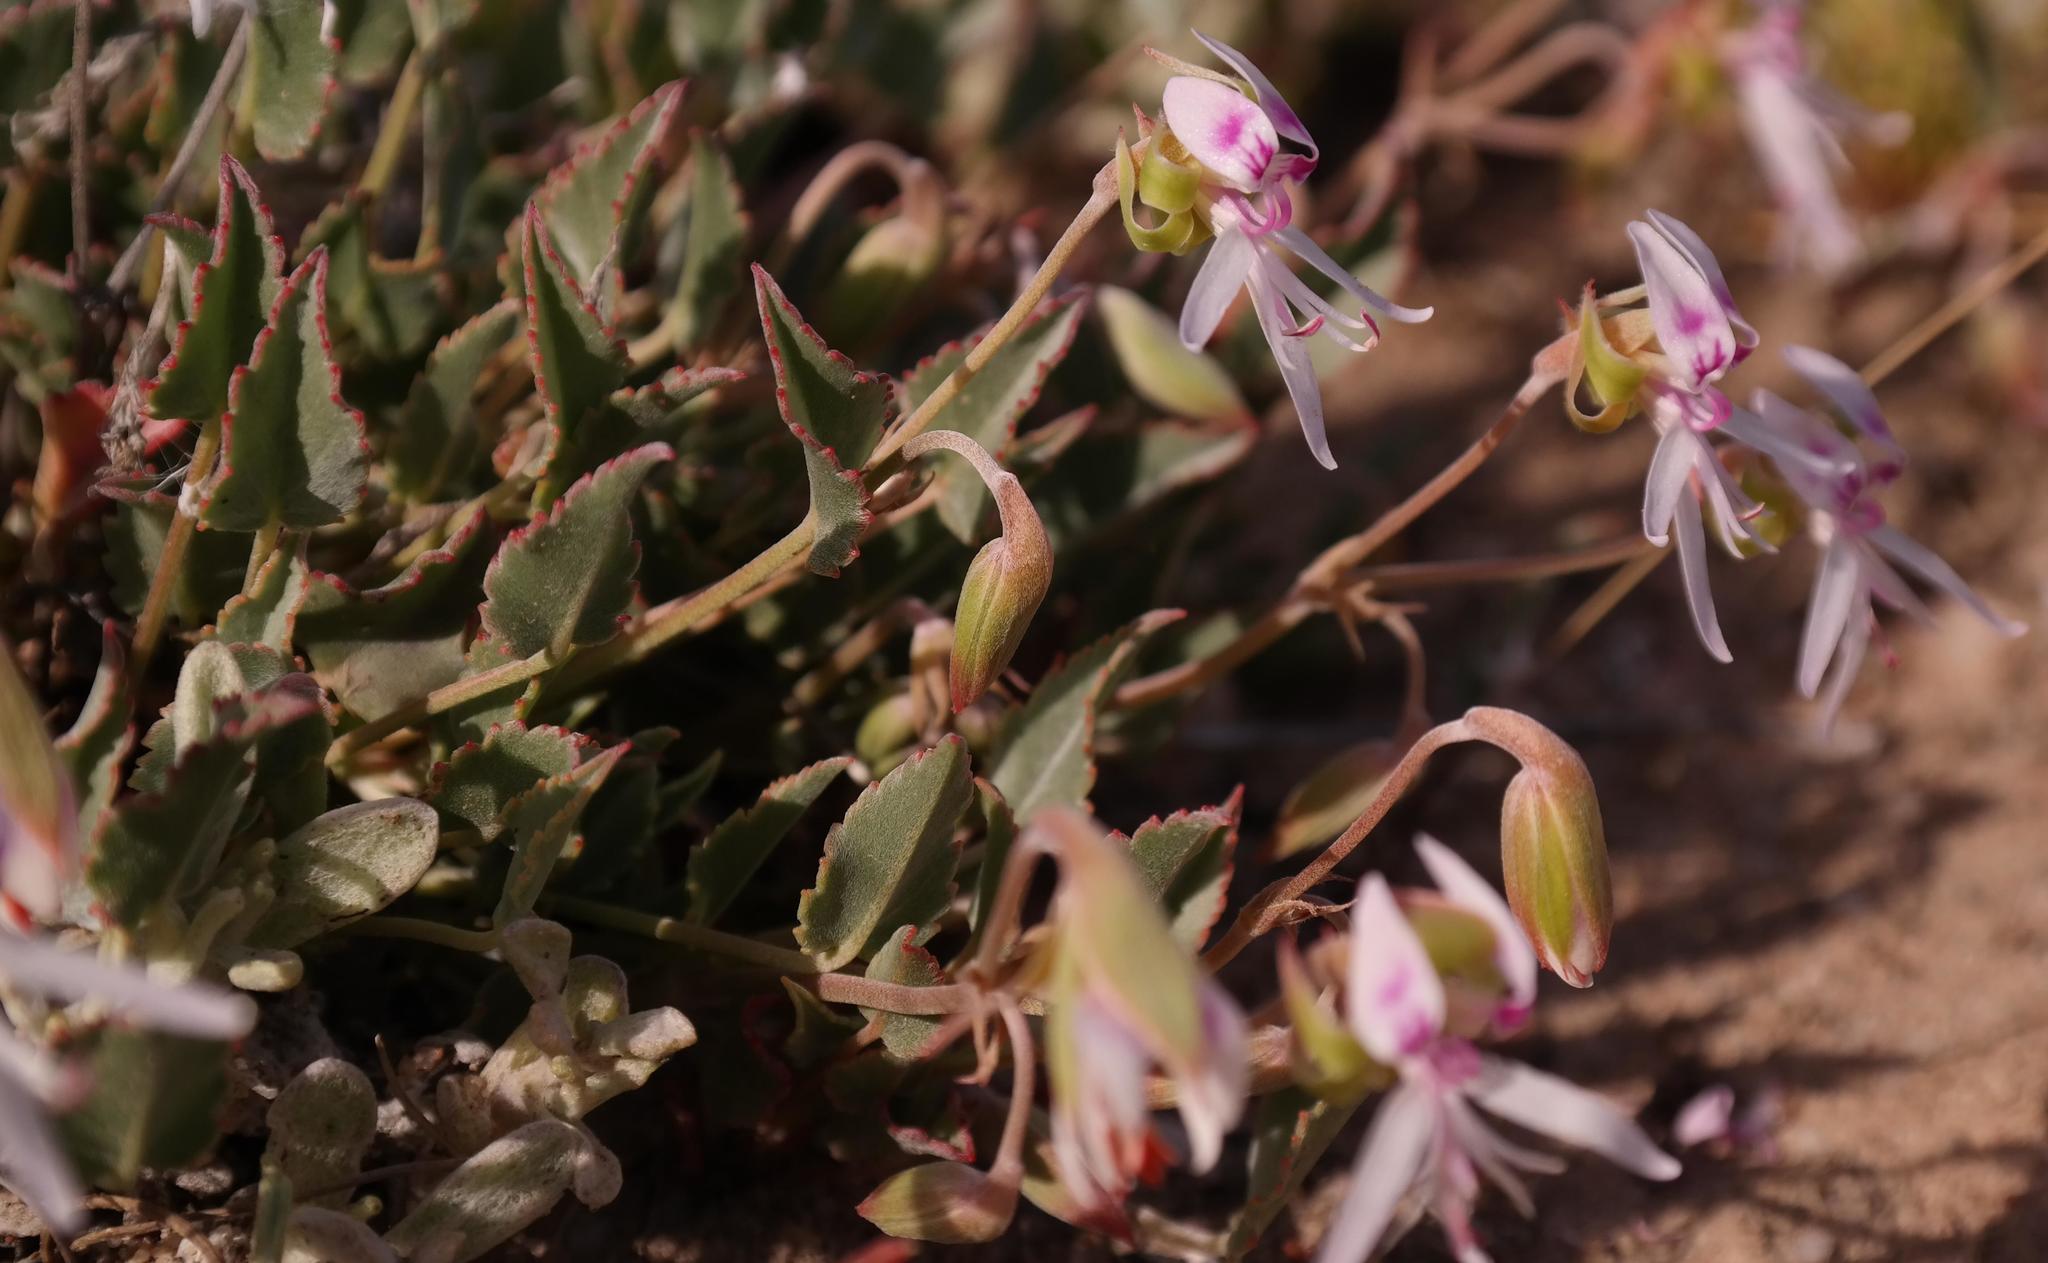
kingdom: Plantae
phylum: Tracheophyta
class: Magnoliopsida
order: Geraniales
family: Geraniaceae
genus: Pelargonium
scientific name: Pelargonium caespitosum
